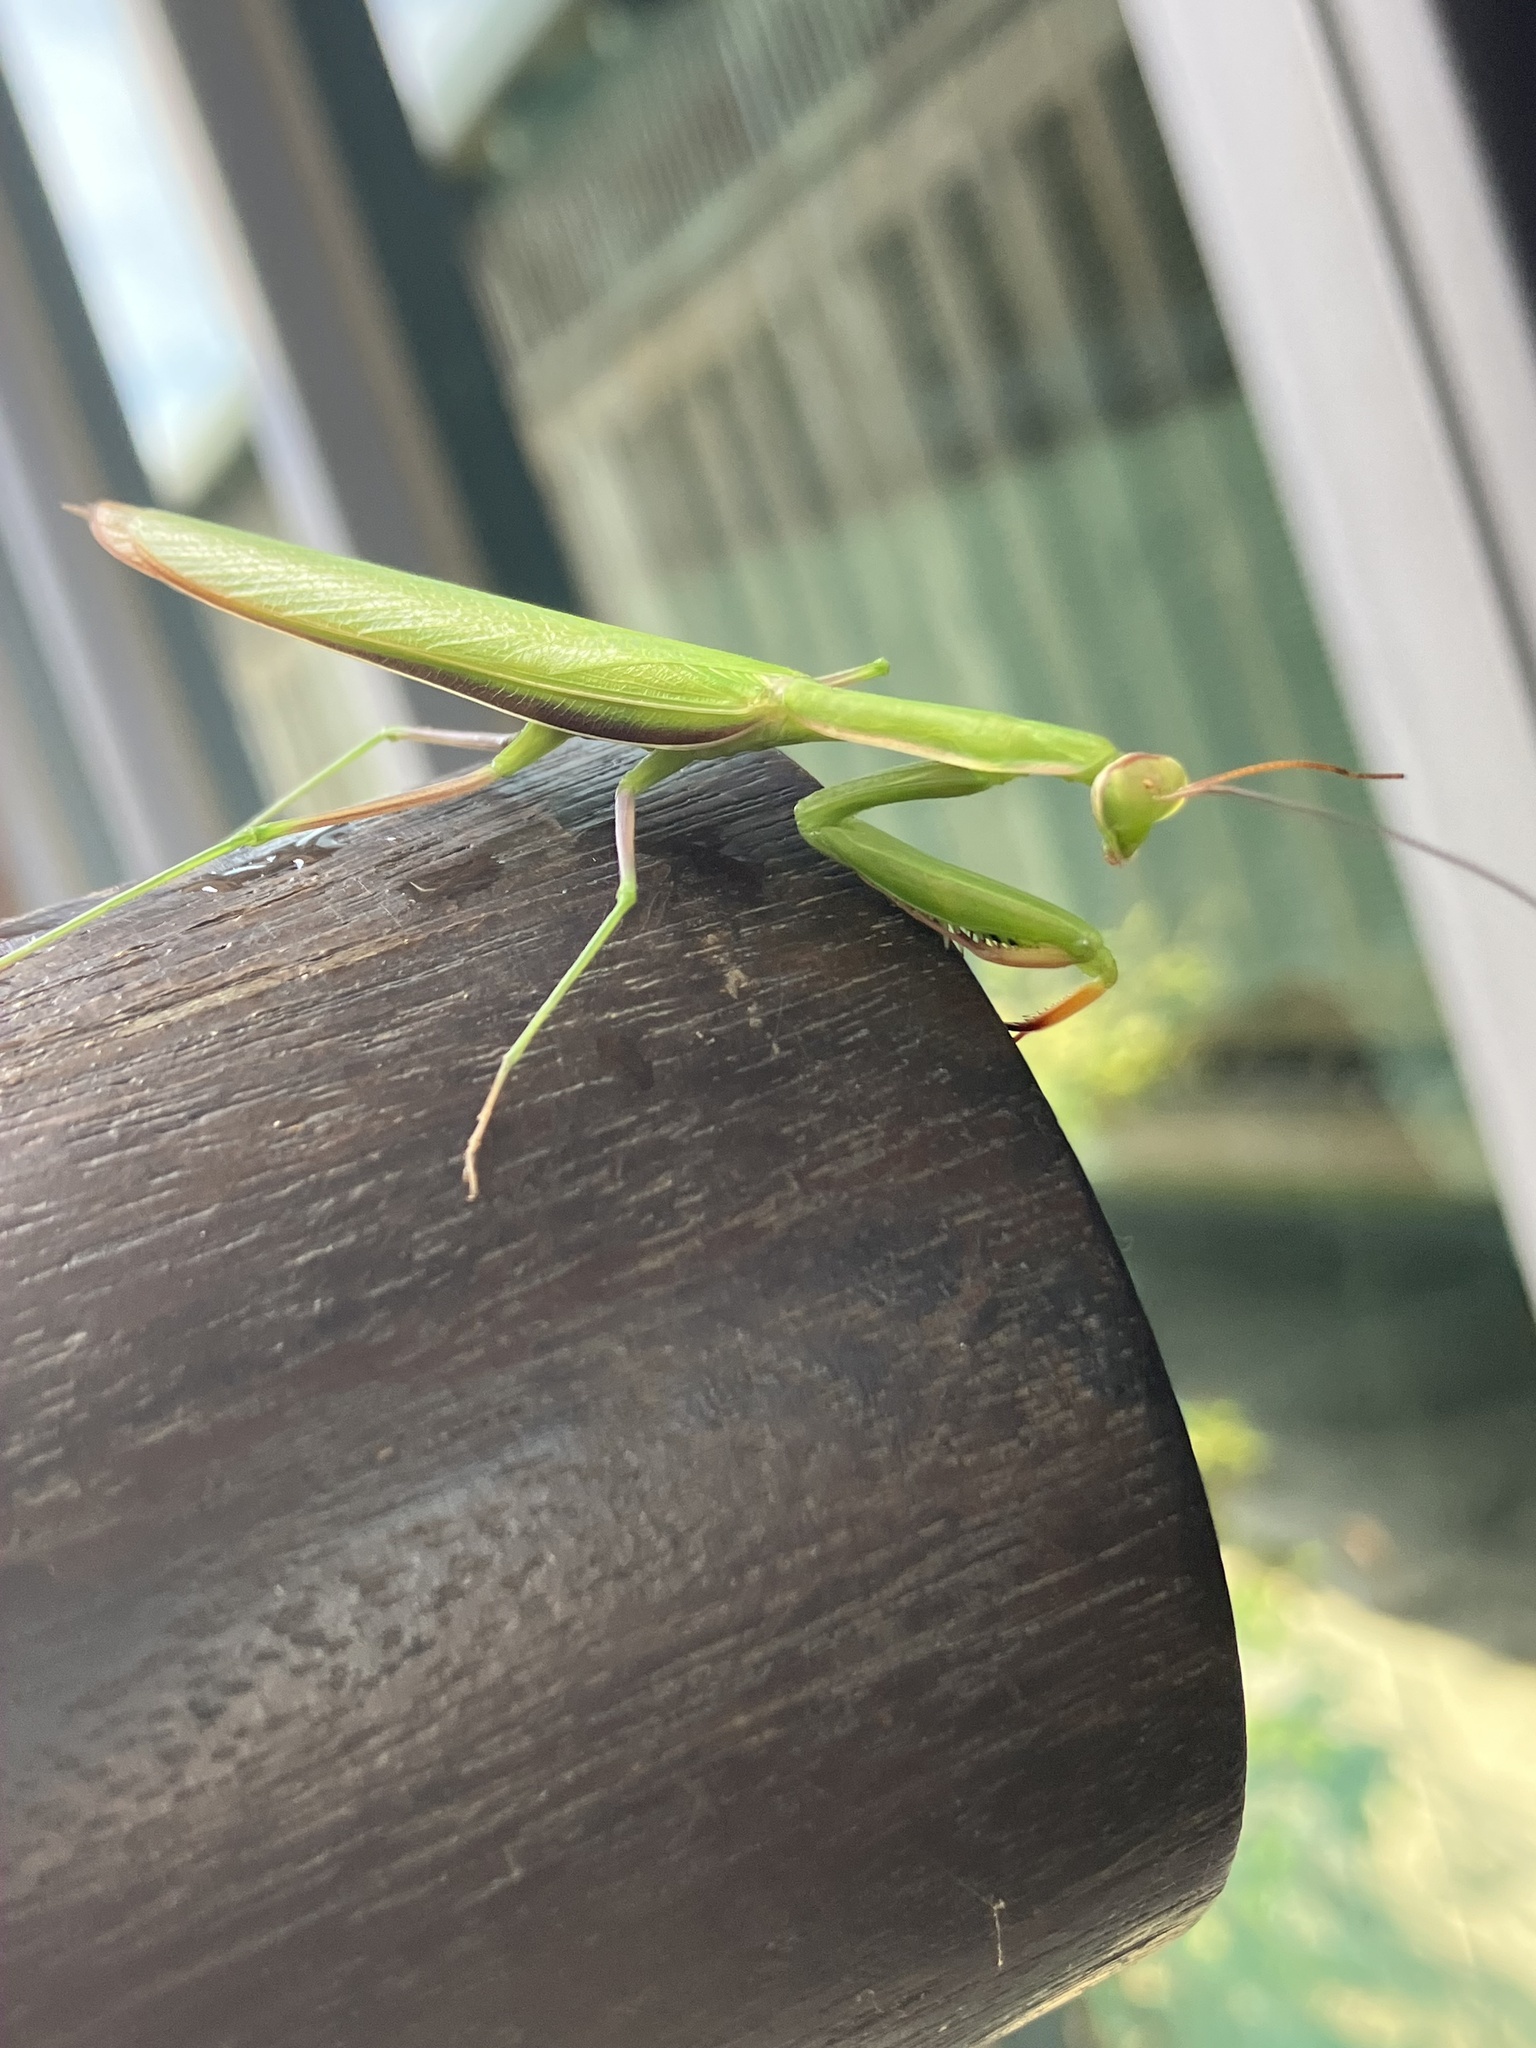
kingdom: Animalia
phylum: Arthropoda
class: Insecta
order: Mantodea
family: Mantidae
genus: Mantis
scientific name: Mantis religiosa
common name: Praying mantis
